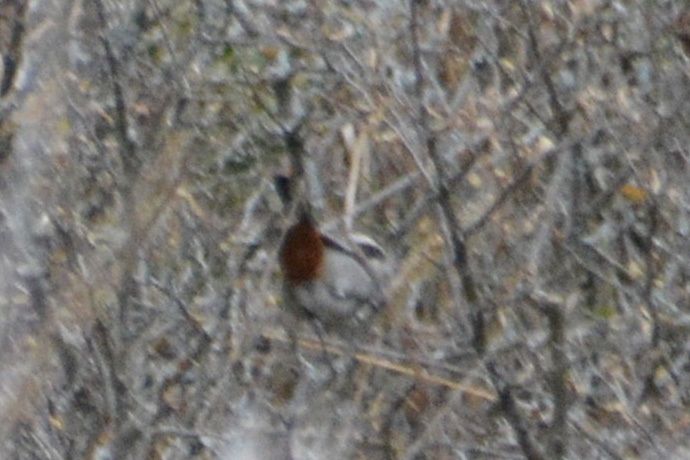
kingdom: Animalia
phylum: Chordata
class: Aves
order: Passeriformes
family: Thraupidae
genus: Microspingus
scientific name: Microspingus torquatus
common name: Ringed warbling-finch
